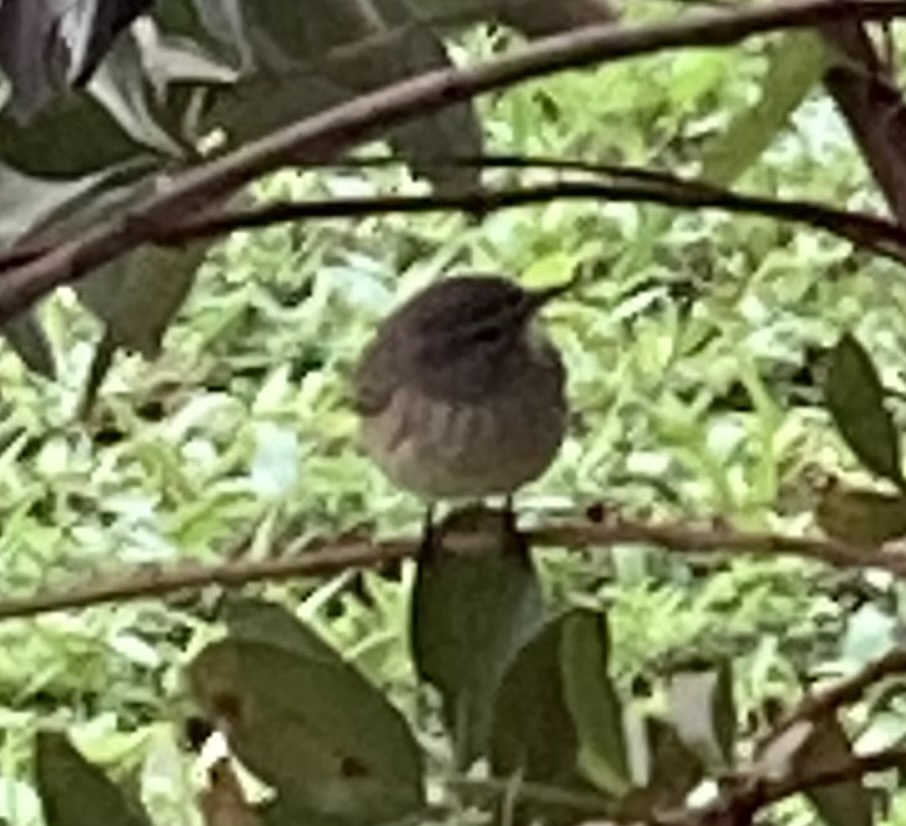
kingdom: Animalia
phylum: Chordata
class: Aves
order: Passeriformes
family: Parulidae
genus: Setophaga
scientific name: Setophaga palmarum
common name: Palm warbler
